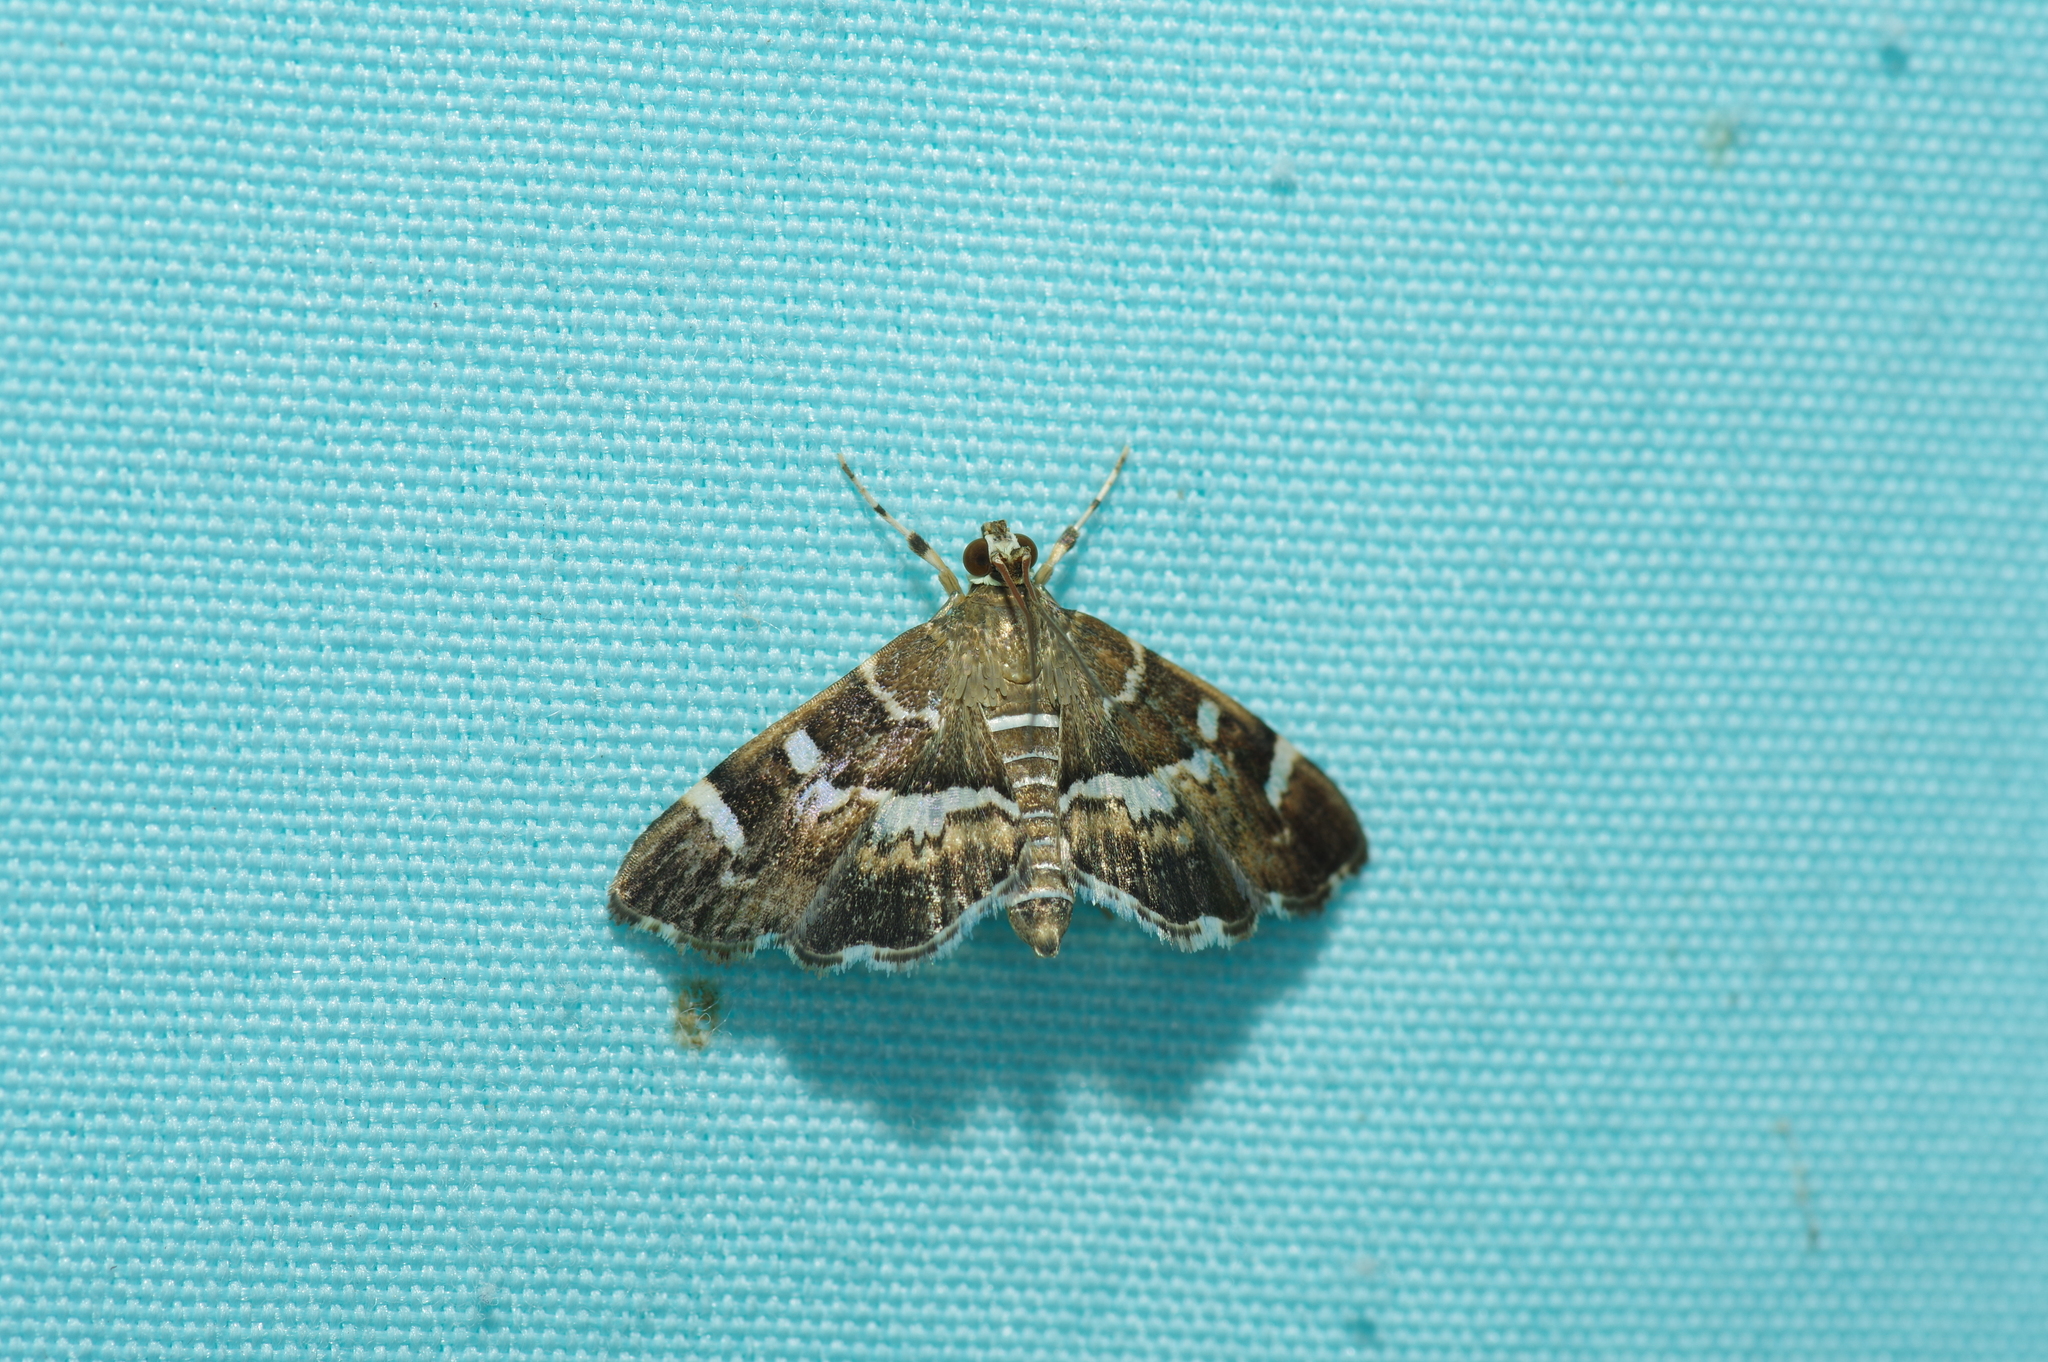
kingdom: Animalia
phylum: Arthropoda
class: Insecta
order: Lepidoptera
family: Crambidae
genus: Hymenia
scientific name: Hymenia perspectalis
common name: Spotted beet webworm
